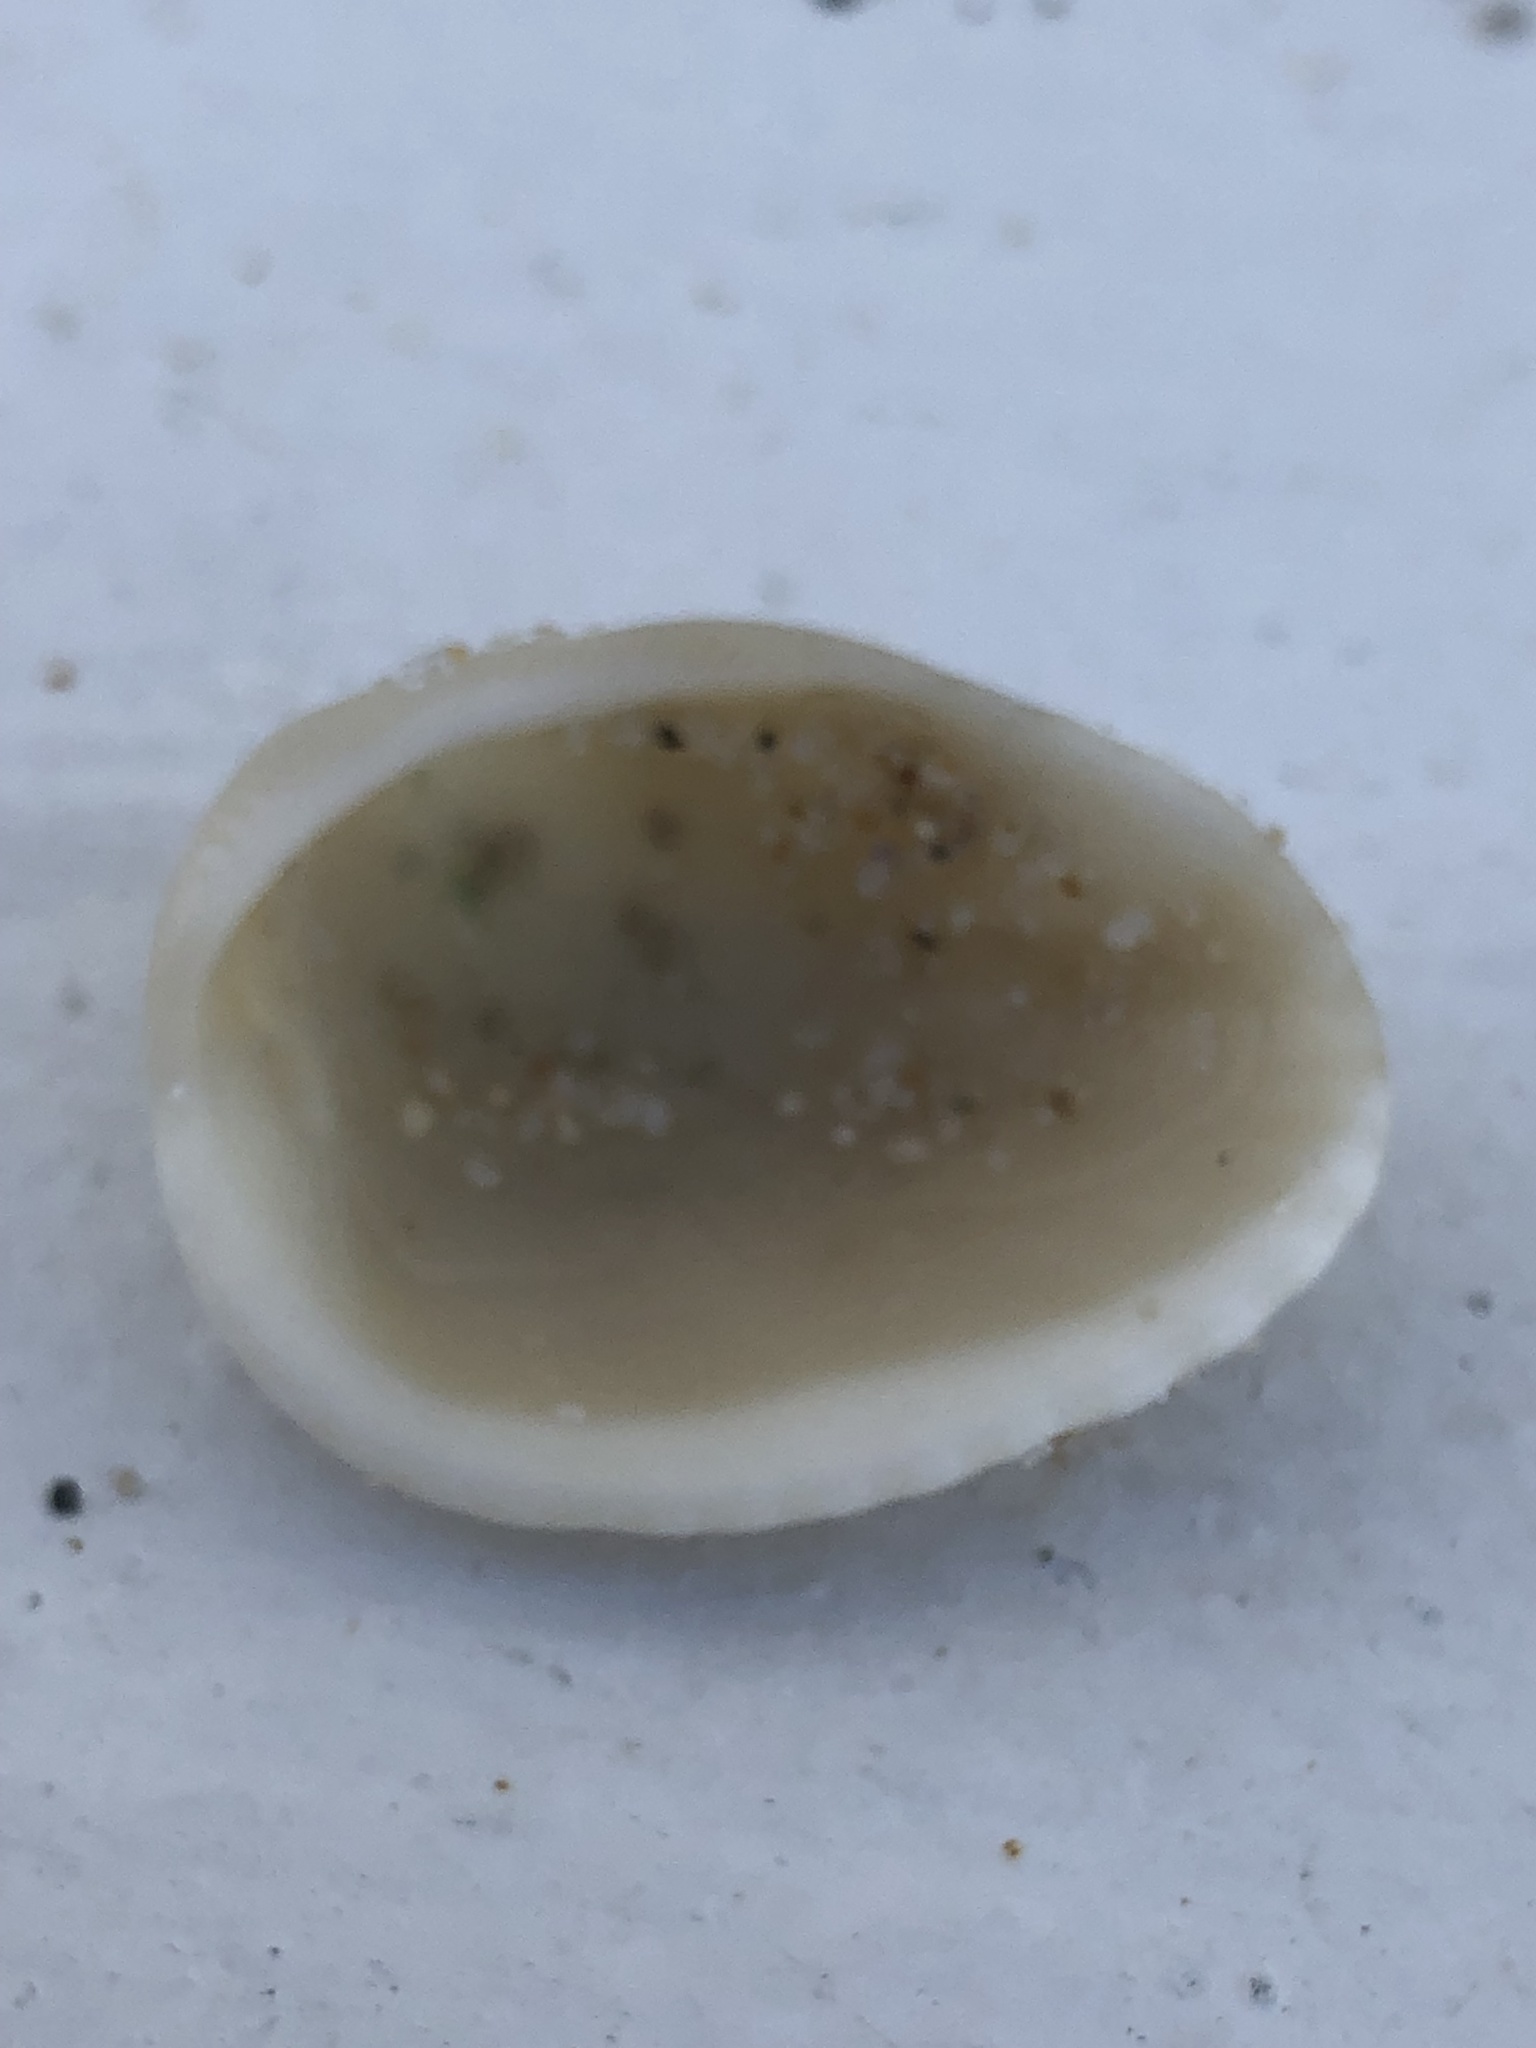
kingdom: Animalia
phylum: Mollusca
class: Bivalvia
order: Arcida
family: Noetiidae
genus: Noetia
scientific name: Noetia ponderosa
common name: Ponderous ark
